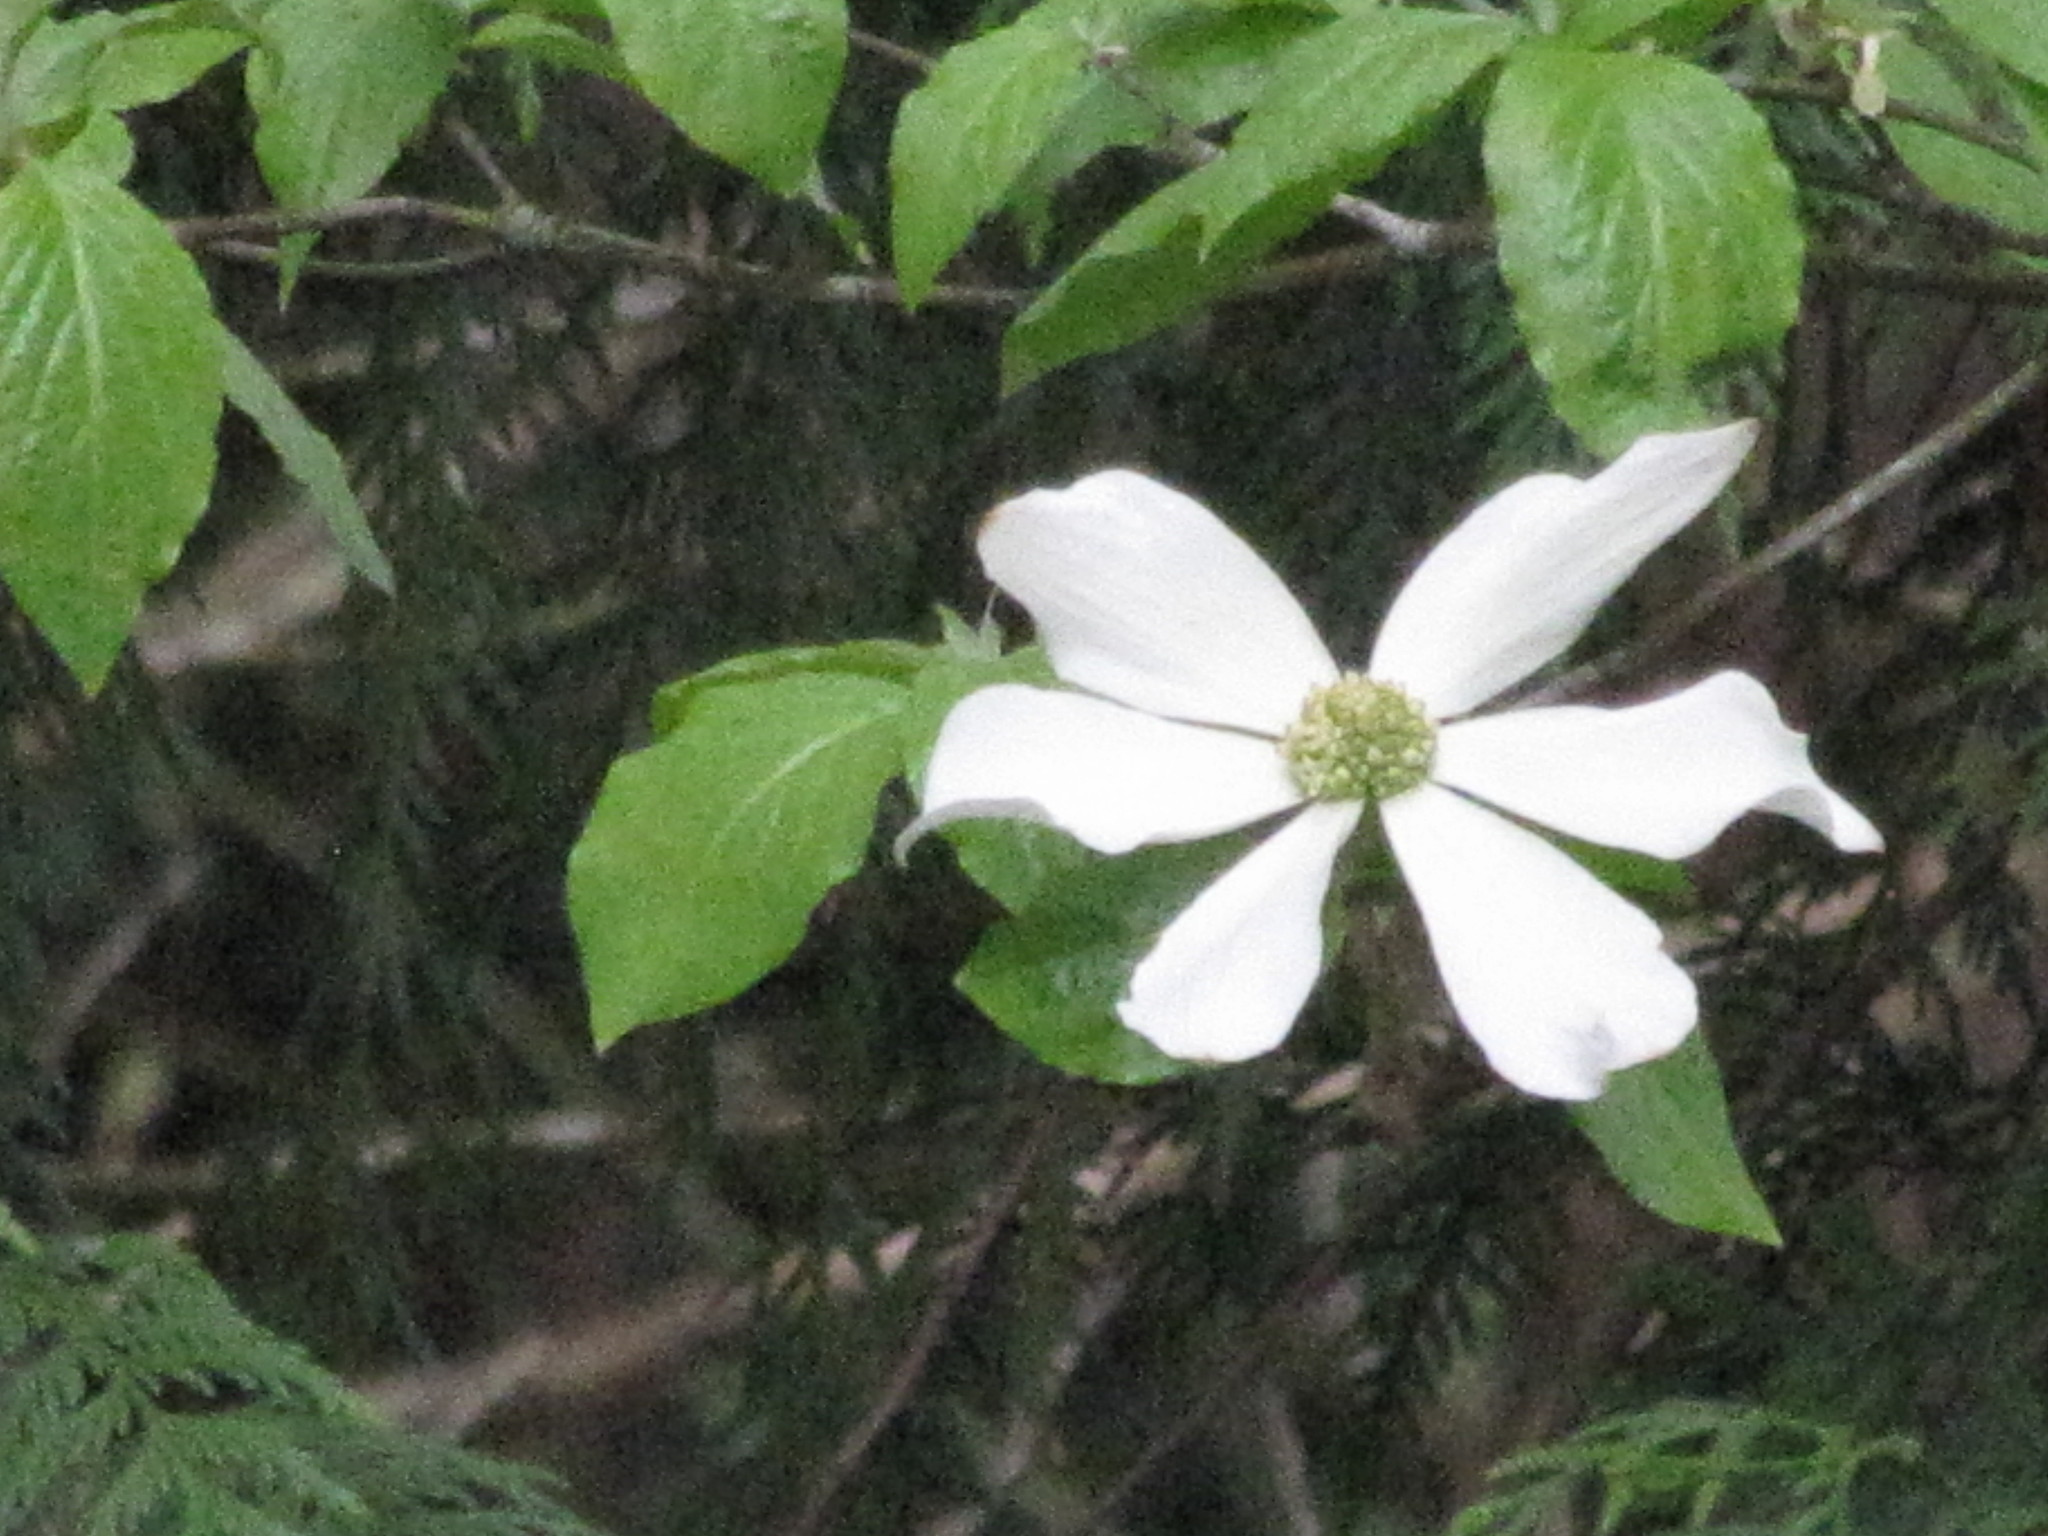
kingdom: Plantae
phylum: Tracheophyta
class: Magnoliopsida
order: Cornales
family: Cornaceae
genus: Cornus
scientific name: Cornus nuttallii
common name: Pacific dogwood
